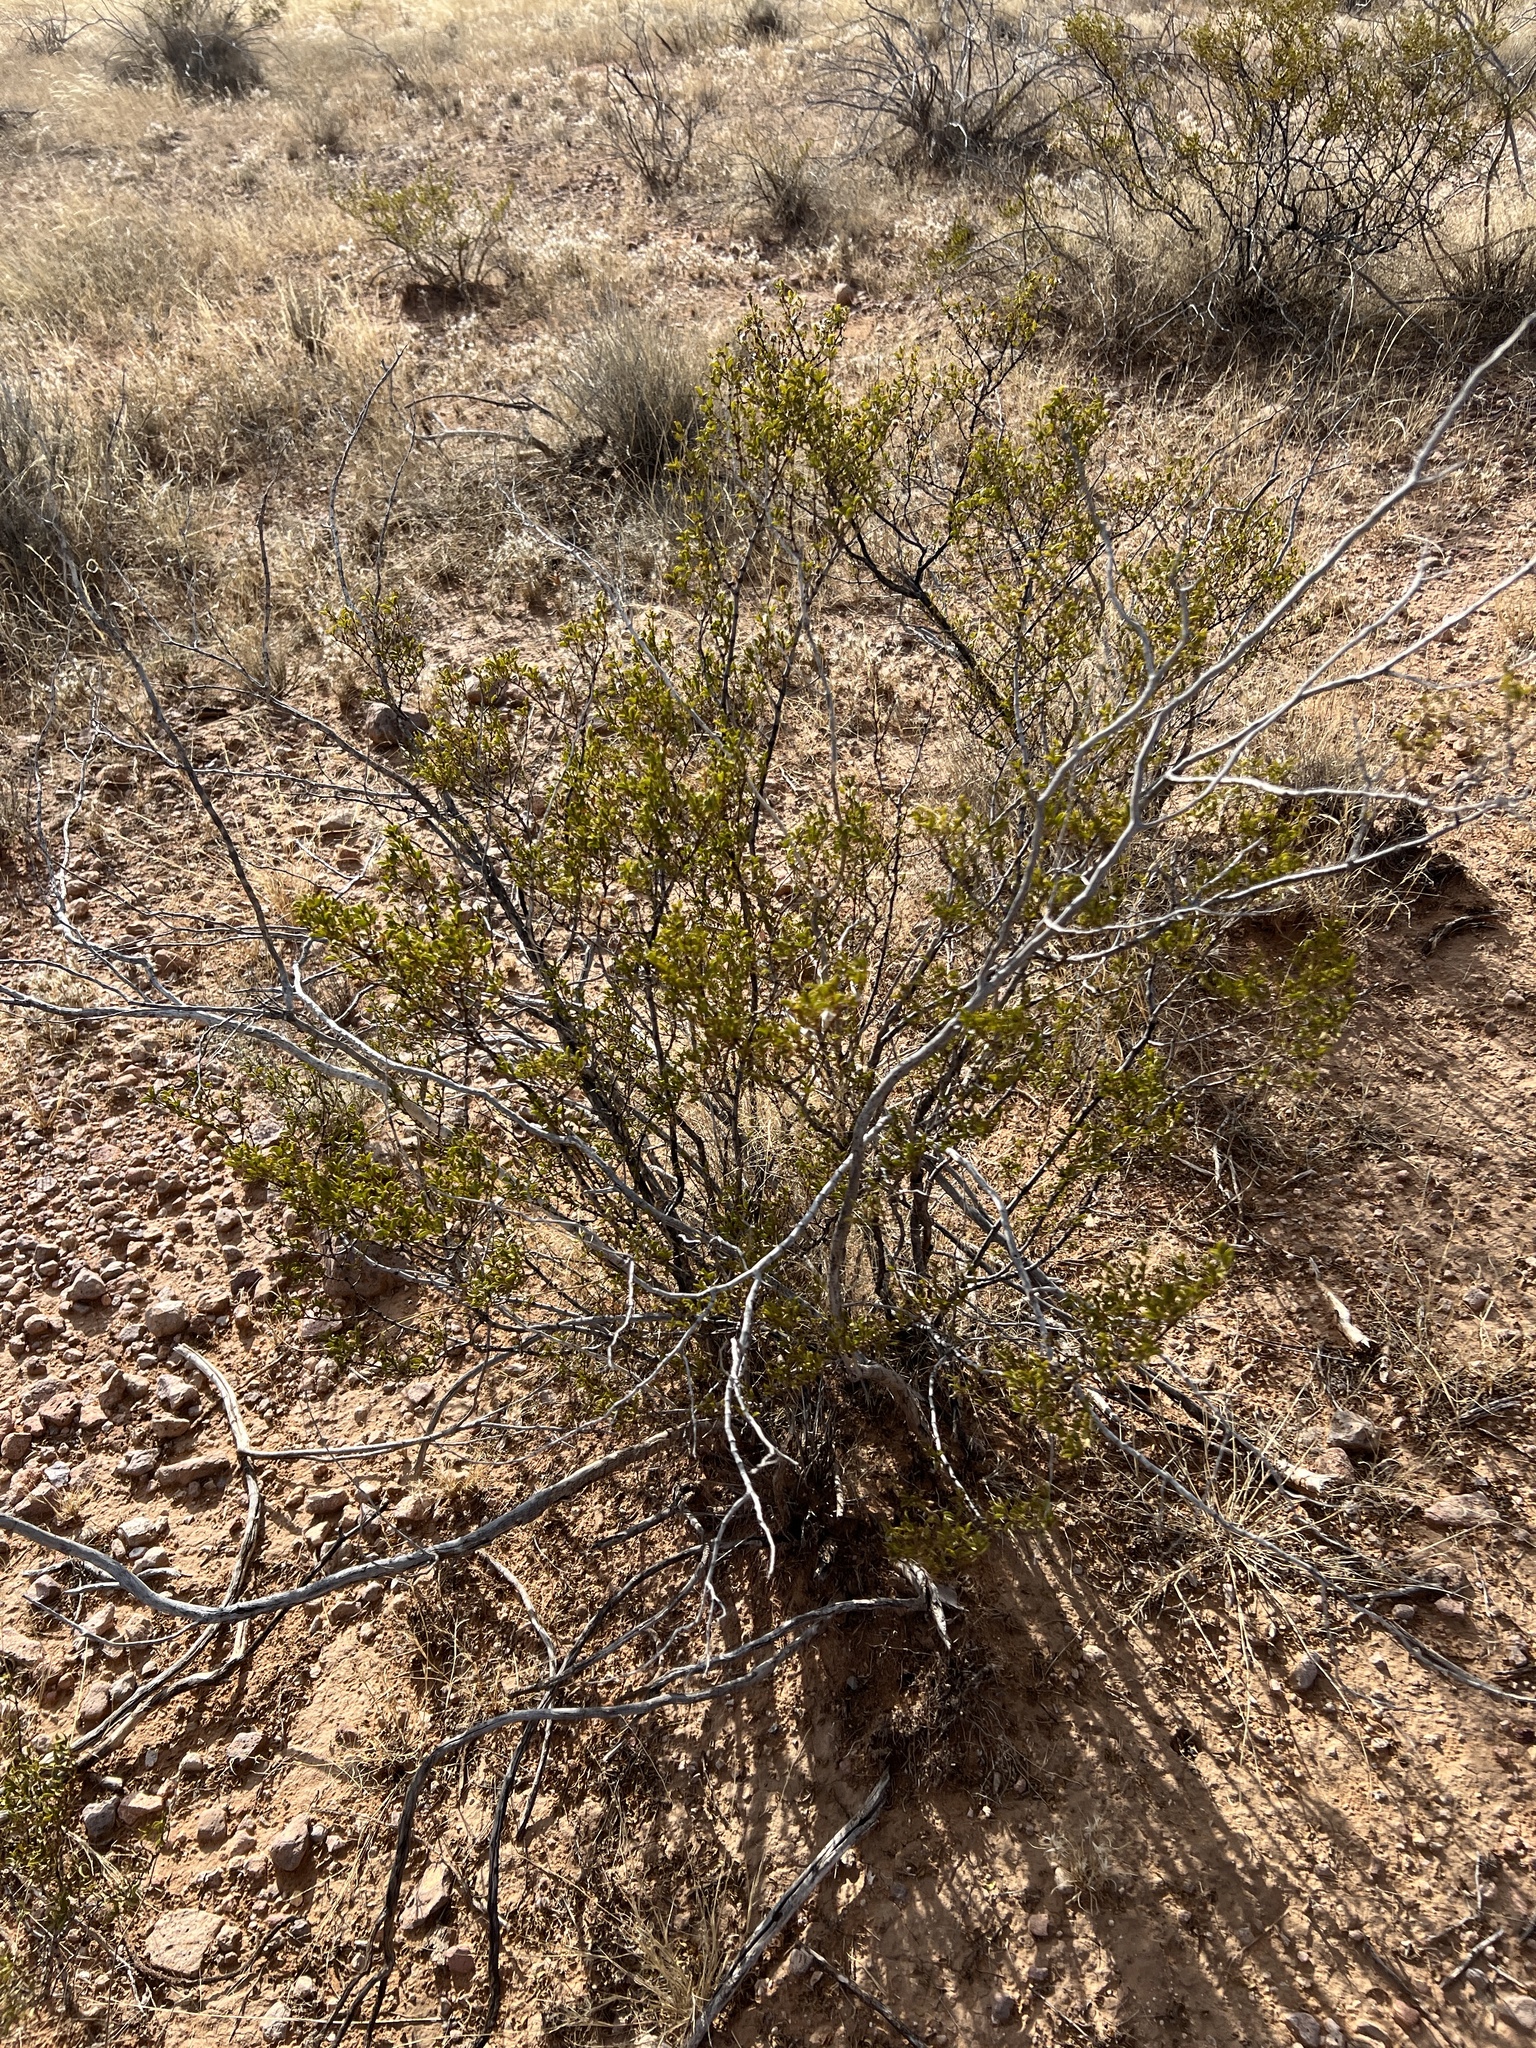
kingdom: Plantae
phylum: Tracheophyta
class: Magnoliopsida
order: Zygophyllales
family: Zygophyllaceae
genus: Larrea
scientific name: Larrea tridentata
